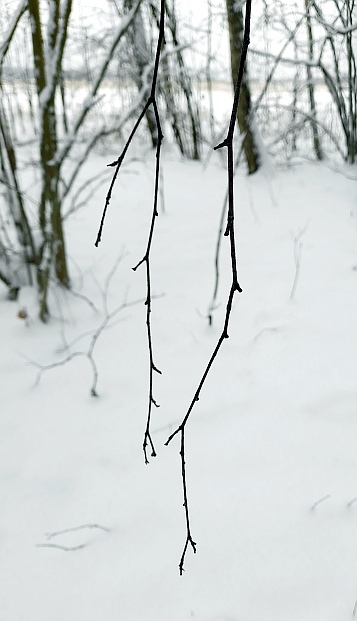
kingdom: Plantae
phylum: Tracheophyta
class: Magnoliopsida
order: Fagales
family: Betulaceae
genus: Betula
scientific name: Betula pendula
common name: Silver birch
